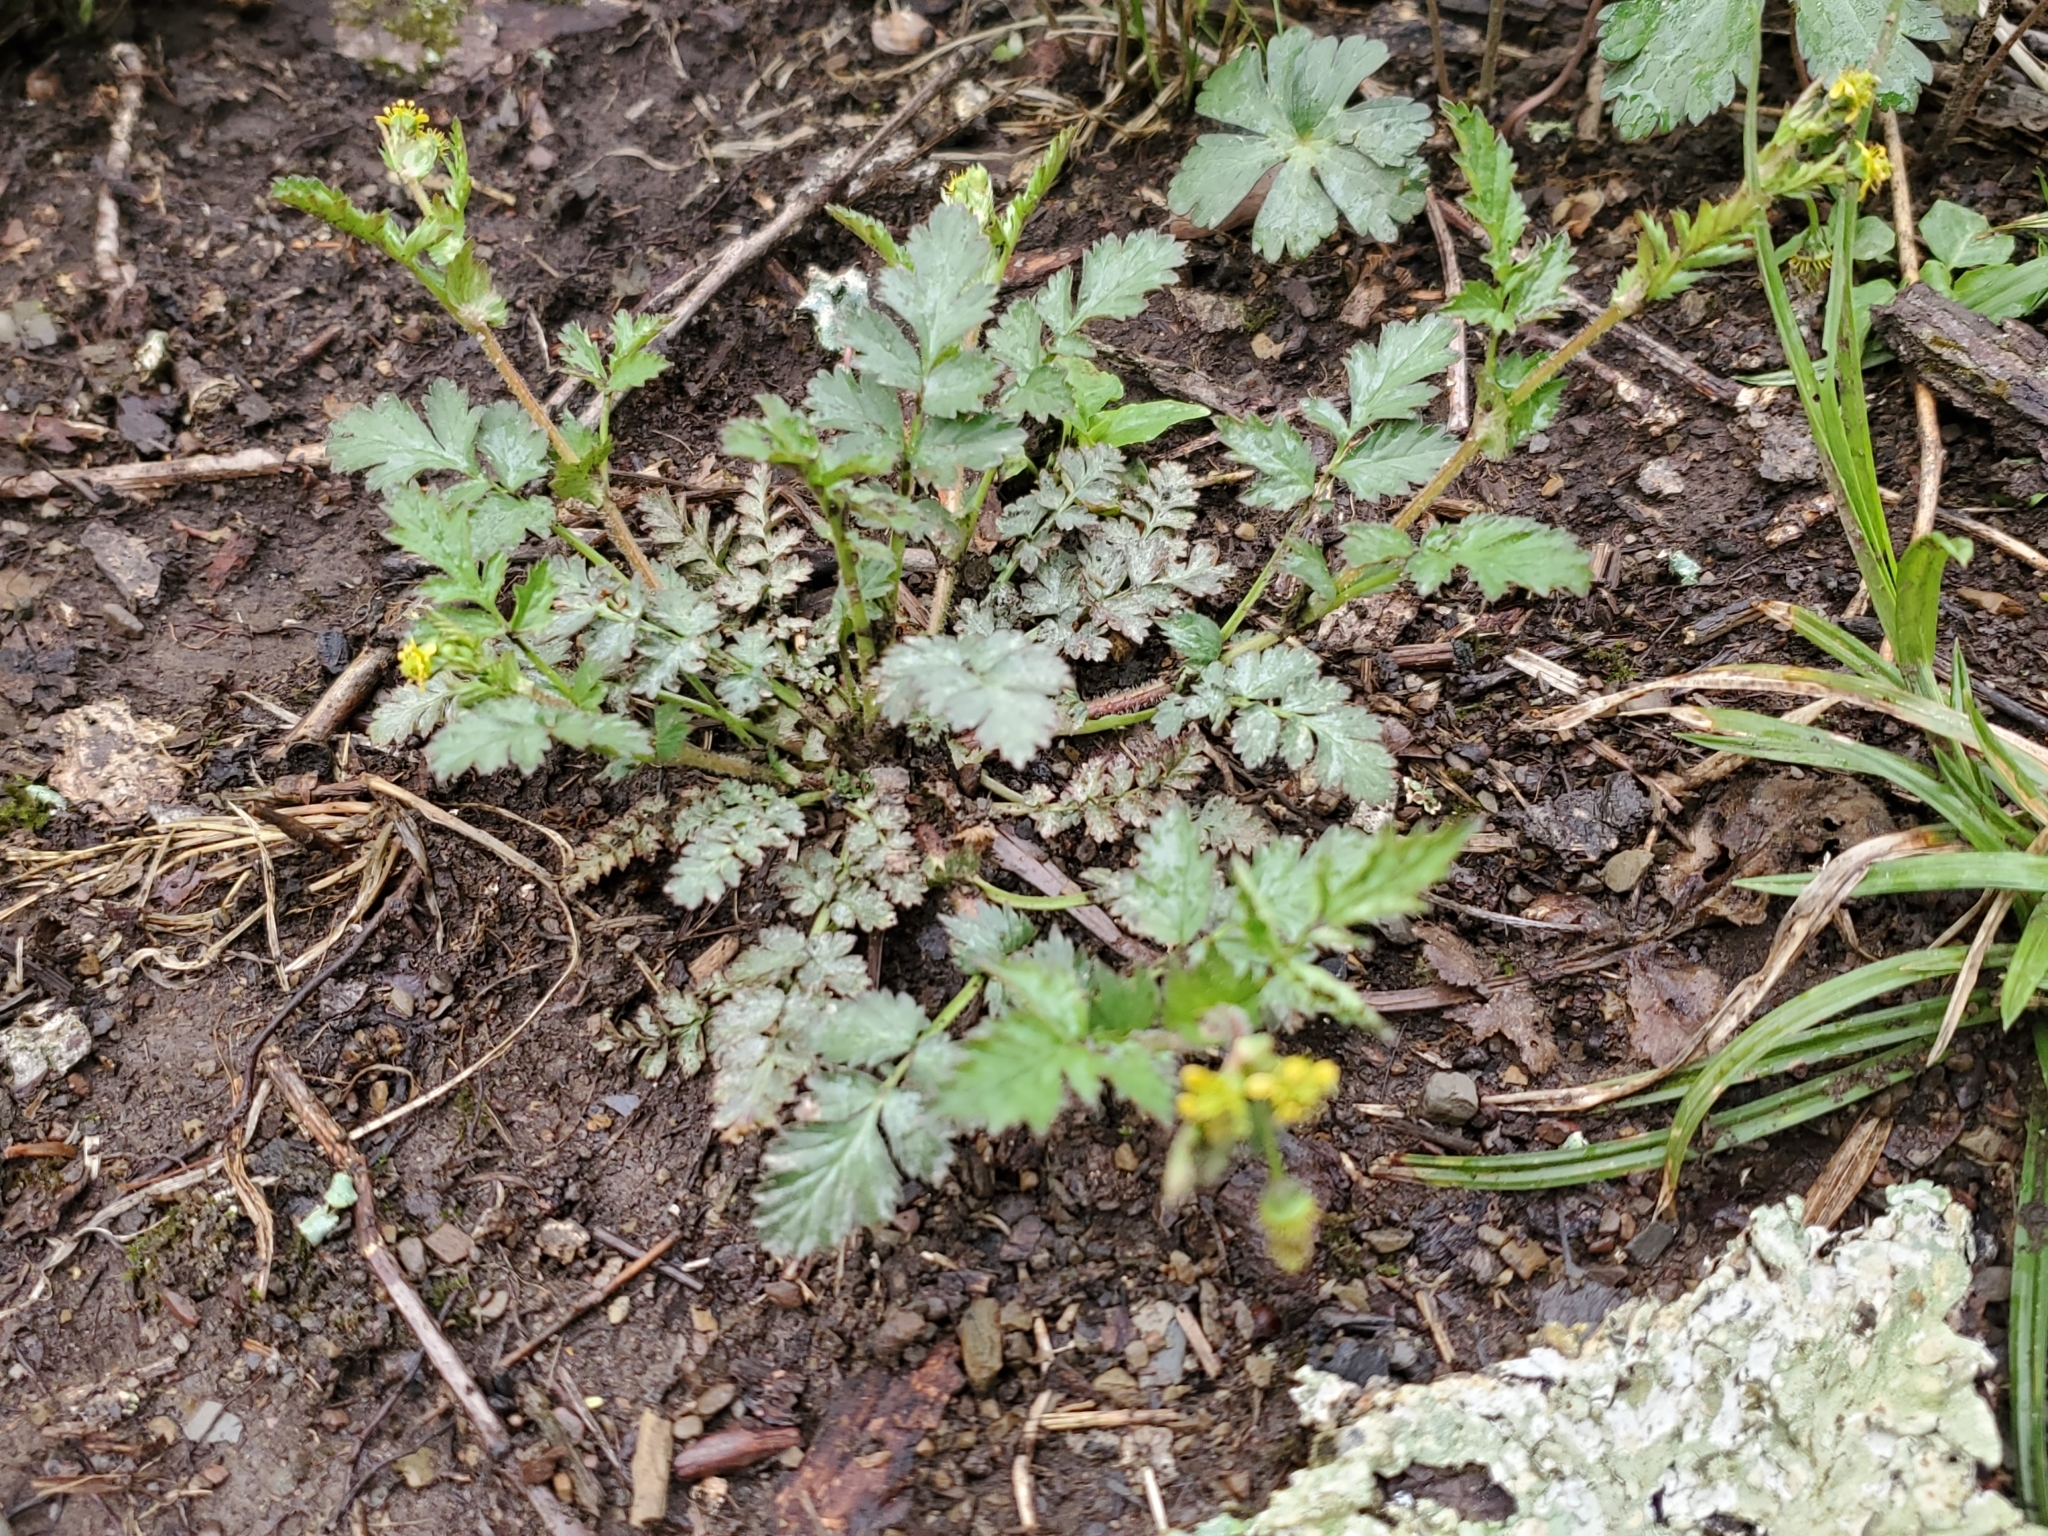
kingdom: Plantae
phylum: Tracheophyta
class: Magnoliopsida
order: Rosales
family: Rosaceae
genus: Geum
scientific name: Geum vernum
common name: Spring avens
